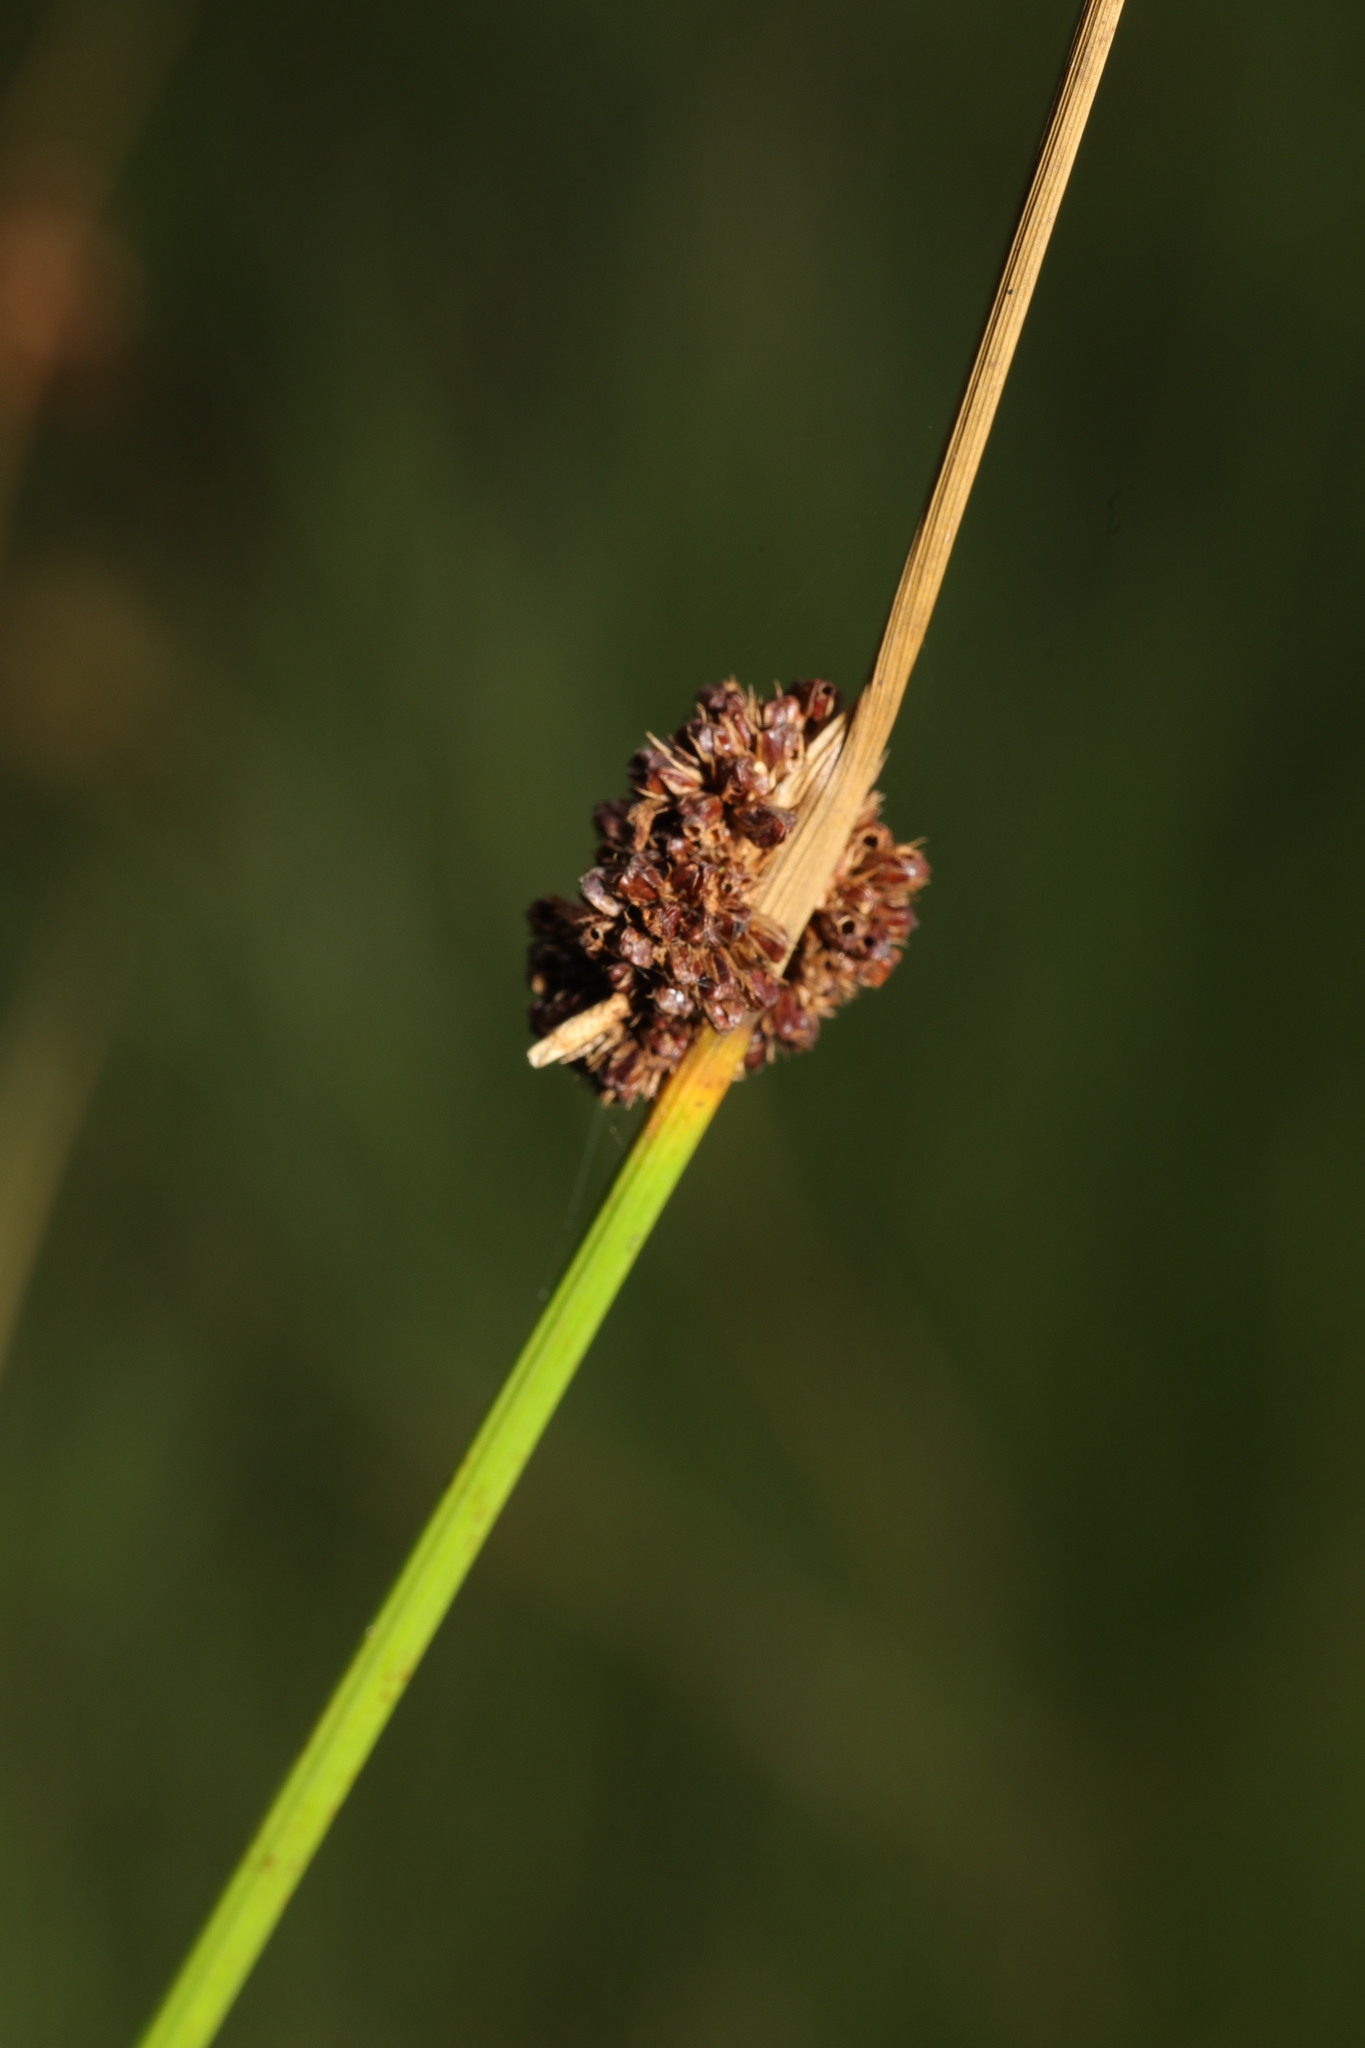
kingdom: Plantae
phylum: Tracheophyta
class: Liliopsida
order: Poales
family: Juncaceae
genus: Juncus
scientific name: Juncus conglomeratus
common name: Compact rush
